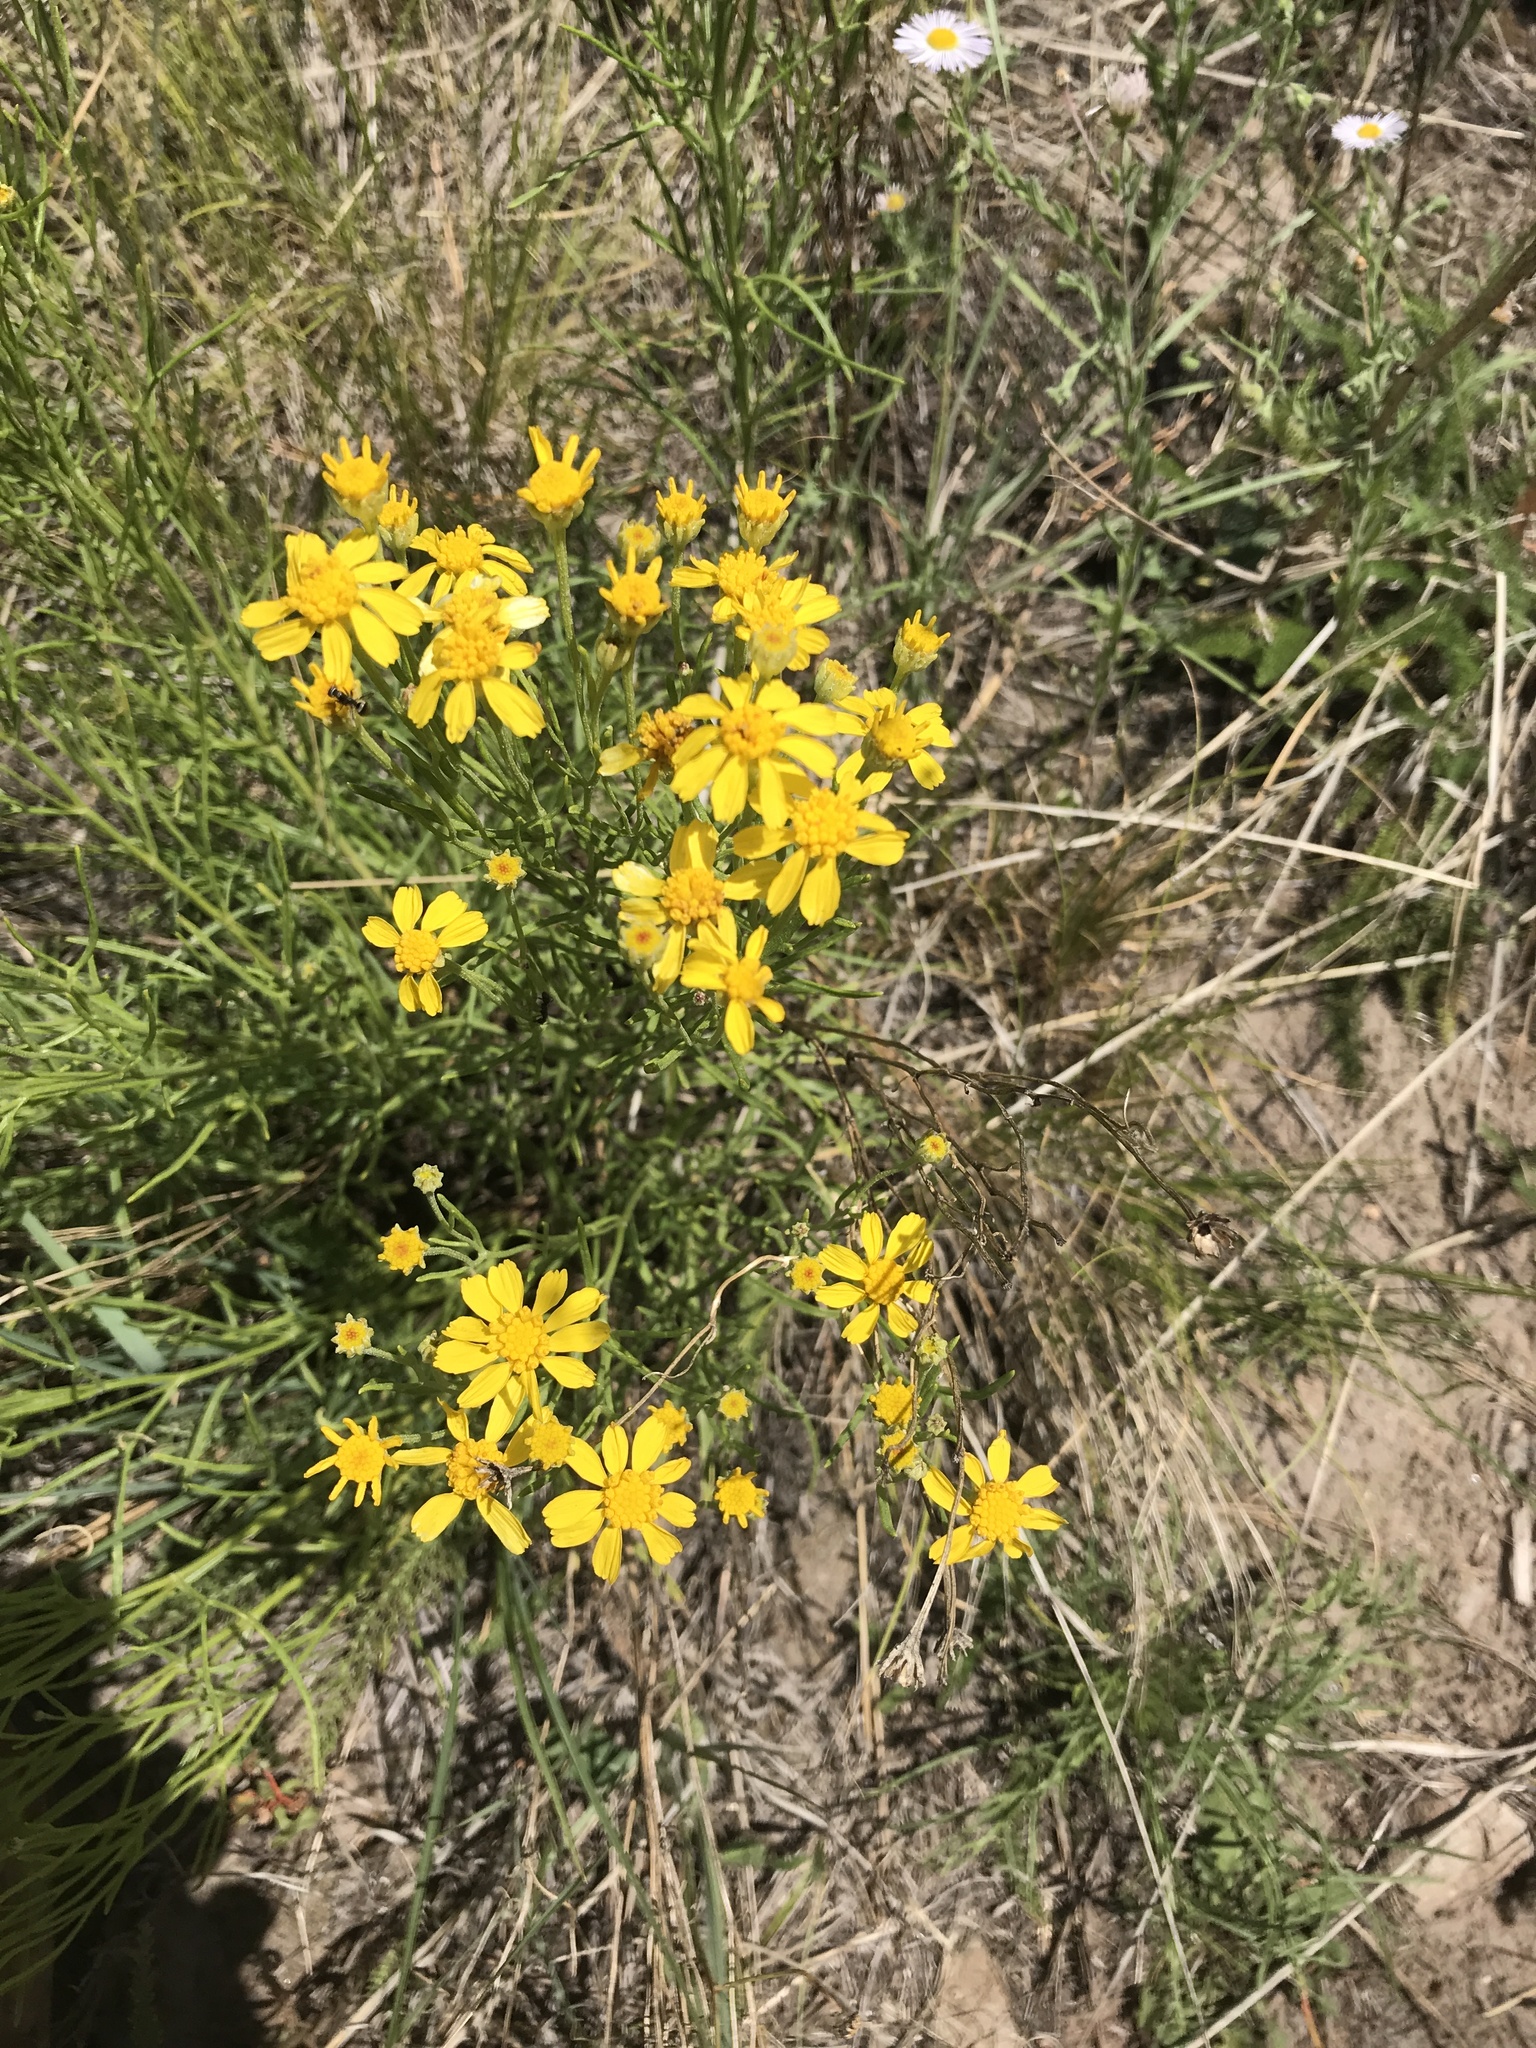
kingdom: Plantae
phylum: Tracheophyta
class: Magnoliopsida
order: Asterales
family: Asteraceae
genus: Hymenoxys
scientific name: Hymenoxys richardsonii
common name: Pingue rubberweed
